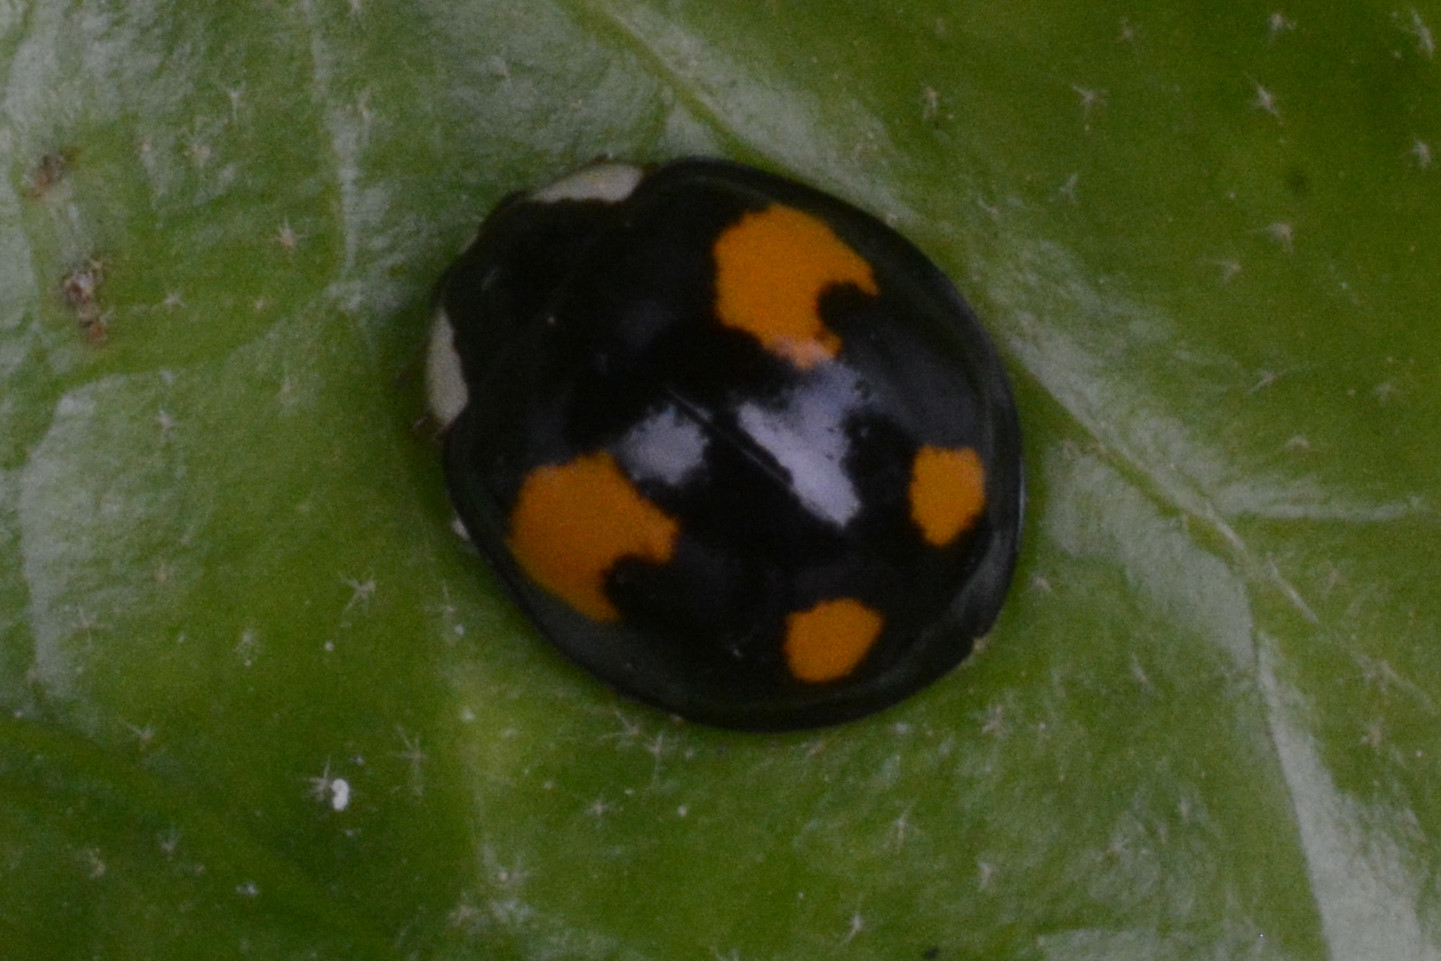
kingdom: Animalia
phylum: Arthropoda
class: Insecta
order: Coleoptera
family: Coccinellidae
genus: Harmonia
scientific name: Harmonia axyridis
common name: Harlequin ladybird
